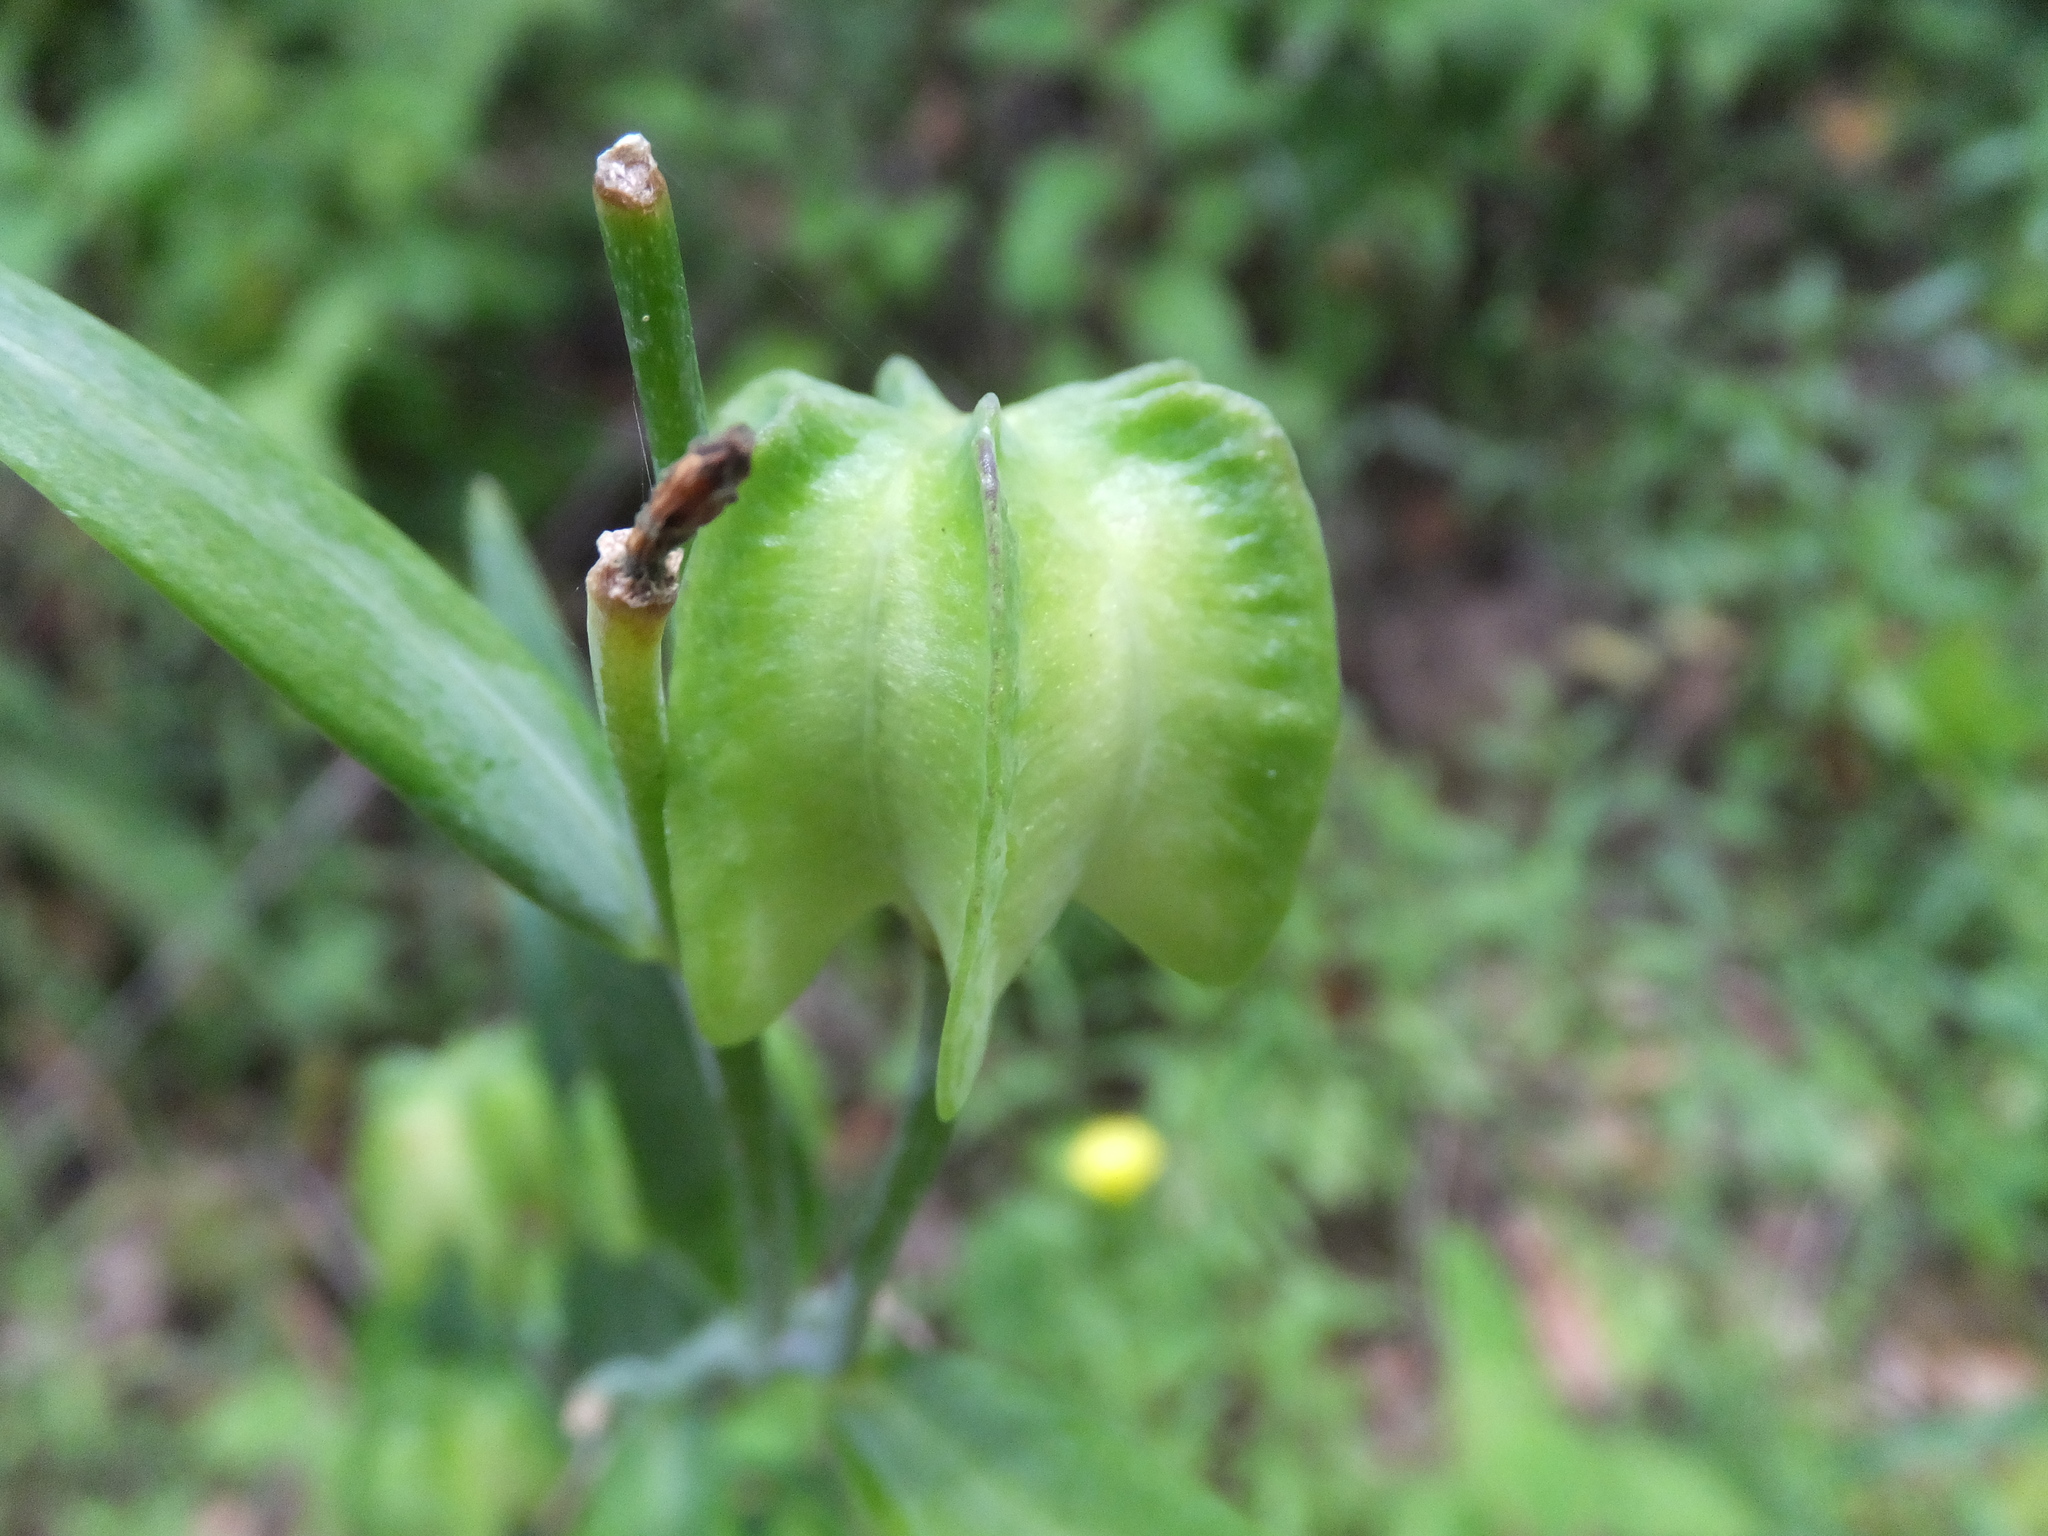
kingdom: Plantae
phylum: Tracheophyta
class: Liliopsida
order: Liliales
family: Liliaceae
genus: Fritillaria
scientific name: Fritillaria affinis
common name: Ojai fritillary
